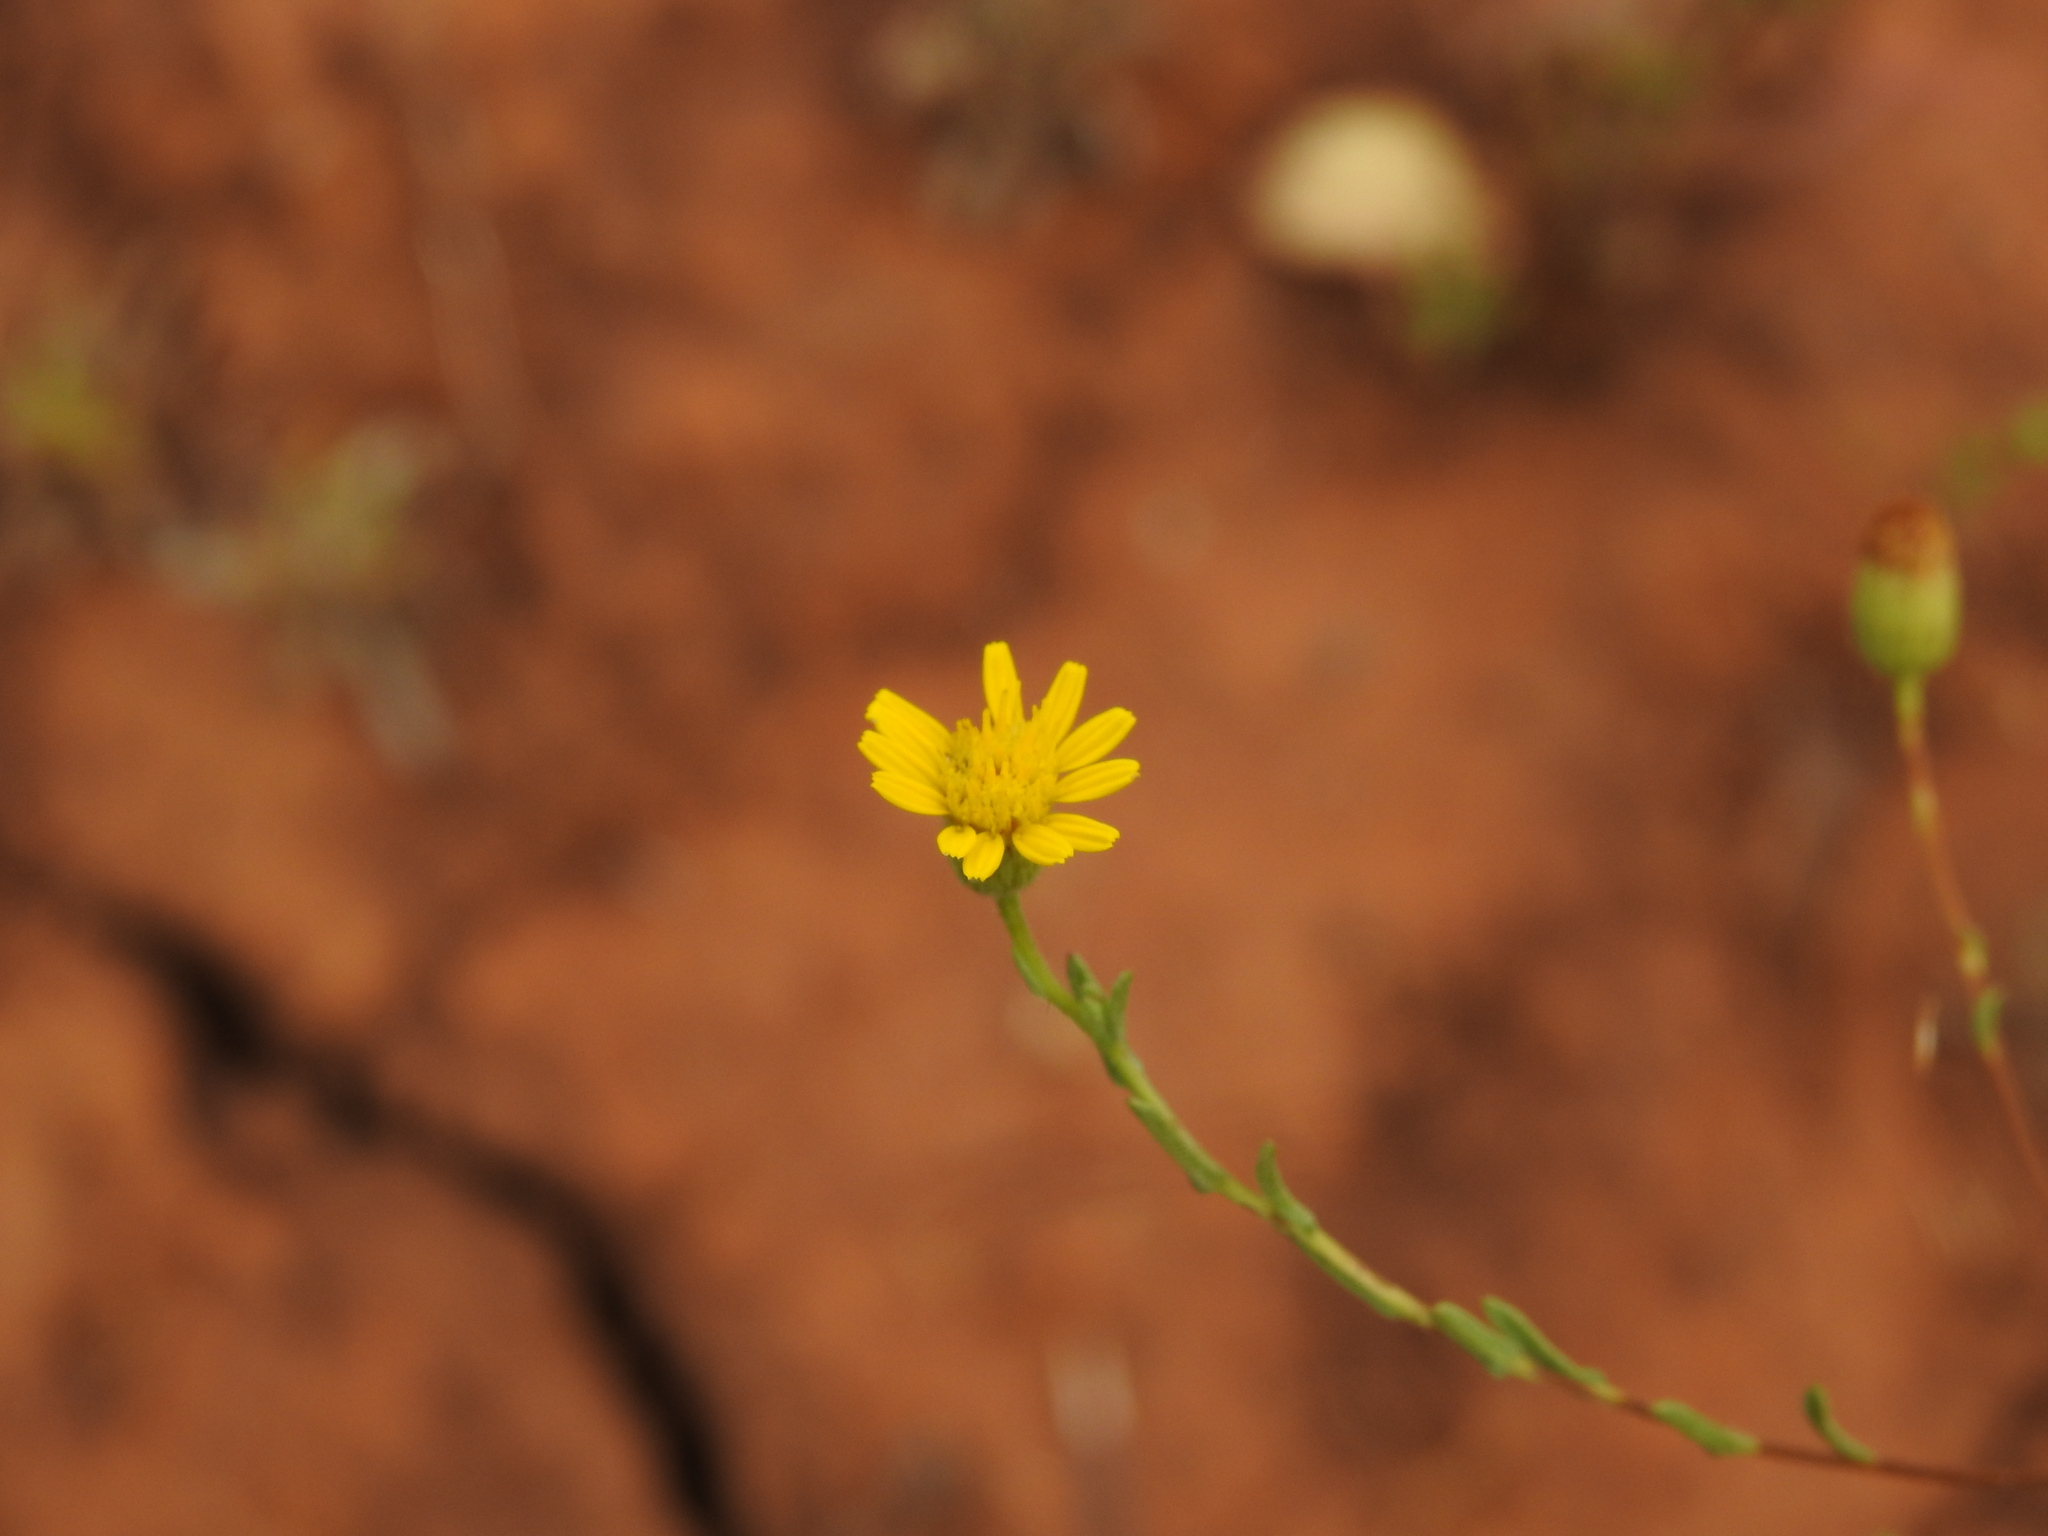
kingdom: Plantae
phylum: Tracheophyta
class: Magnoliopsida
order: Asterales
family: Asteraceae
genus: Pulicaria
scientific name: Pulicaria paludosa
